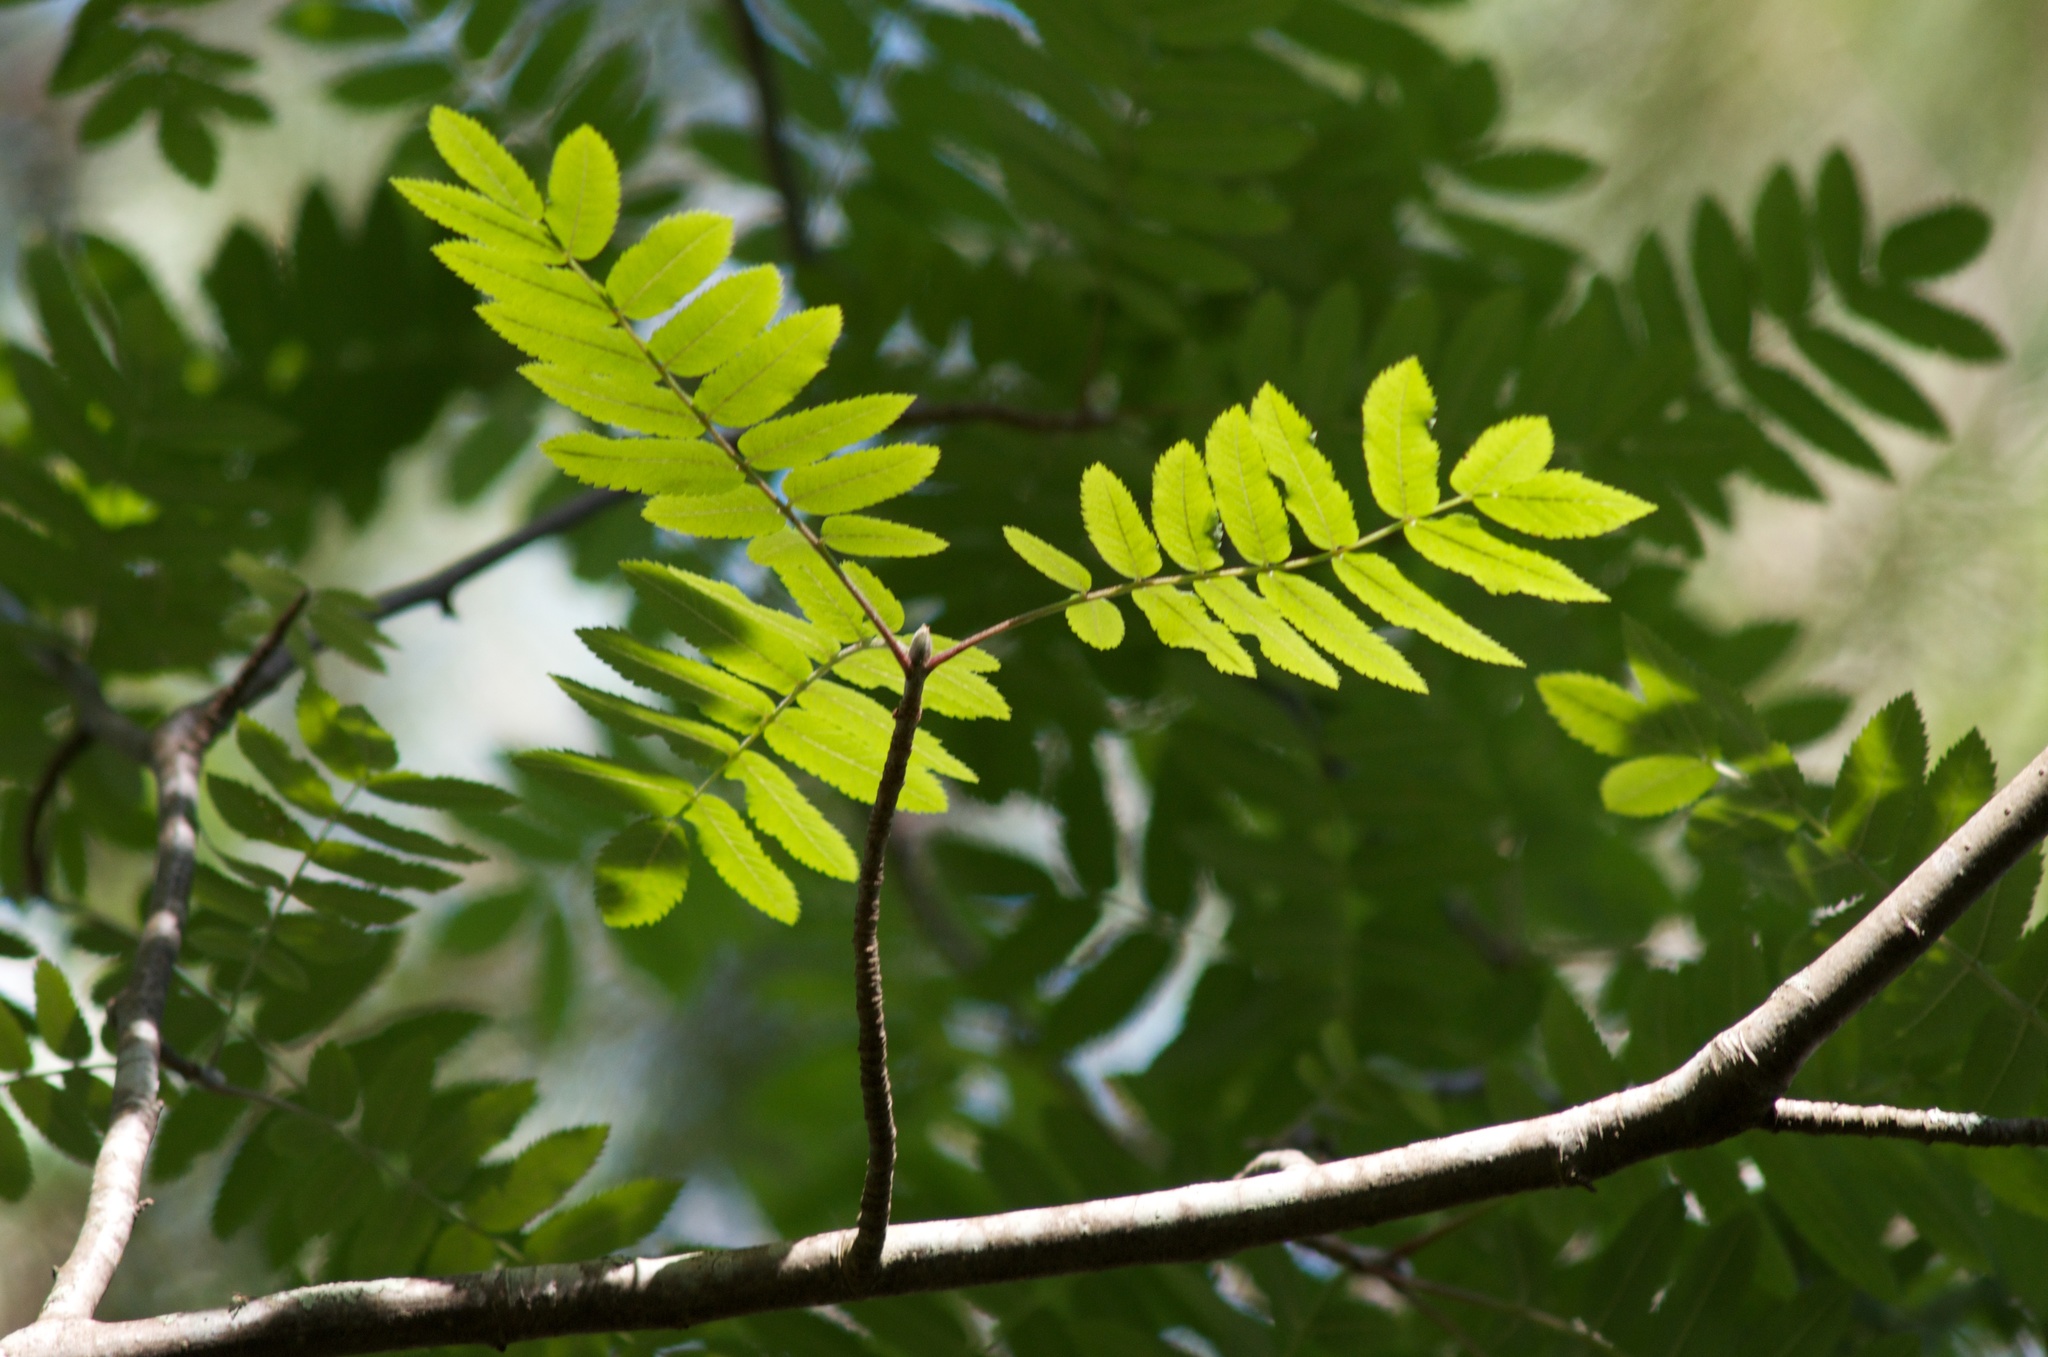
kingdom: Plantae
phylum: Tracheophyta
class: Magnoliopsida
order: Rosales
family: Rosaceae
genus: Sorbus
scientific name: Sorbus aucuparia
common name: Rowan
